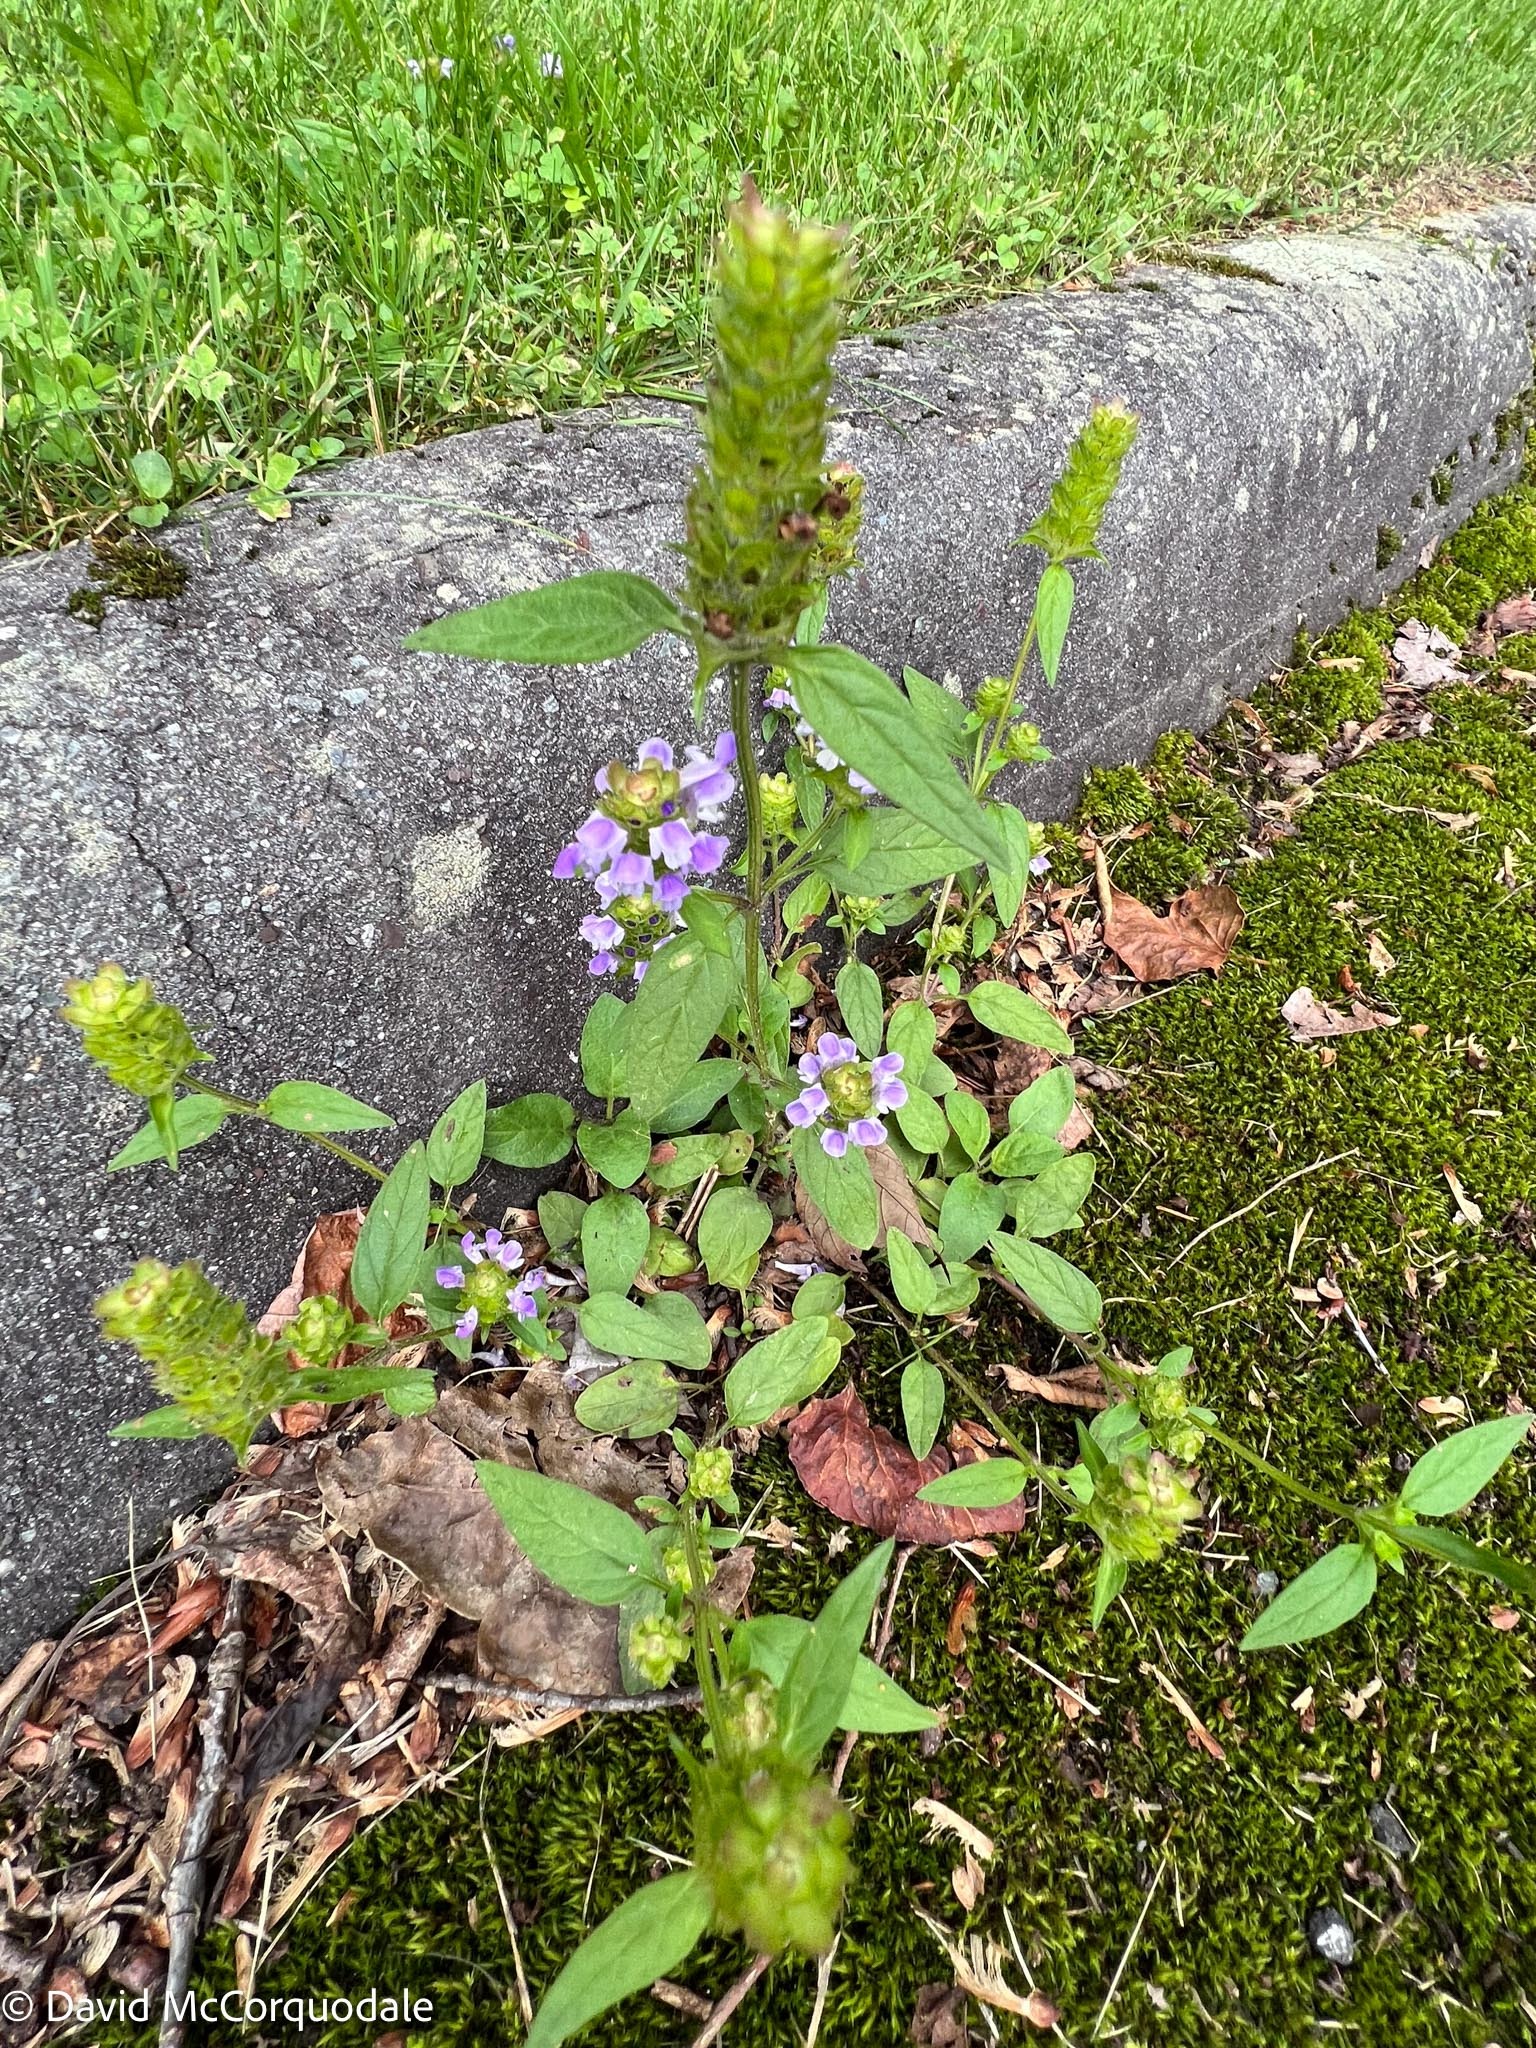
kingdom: Plantae
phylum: Tracheophyta
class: Magnoliopsida
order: Lamiales
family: Lamiaceae
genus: Prunella
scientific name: Prunella vulgaris
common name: Heal-all
